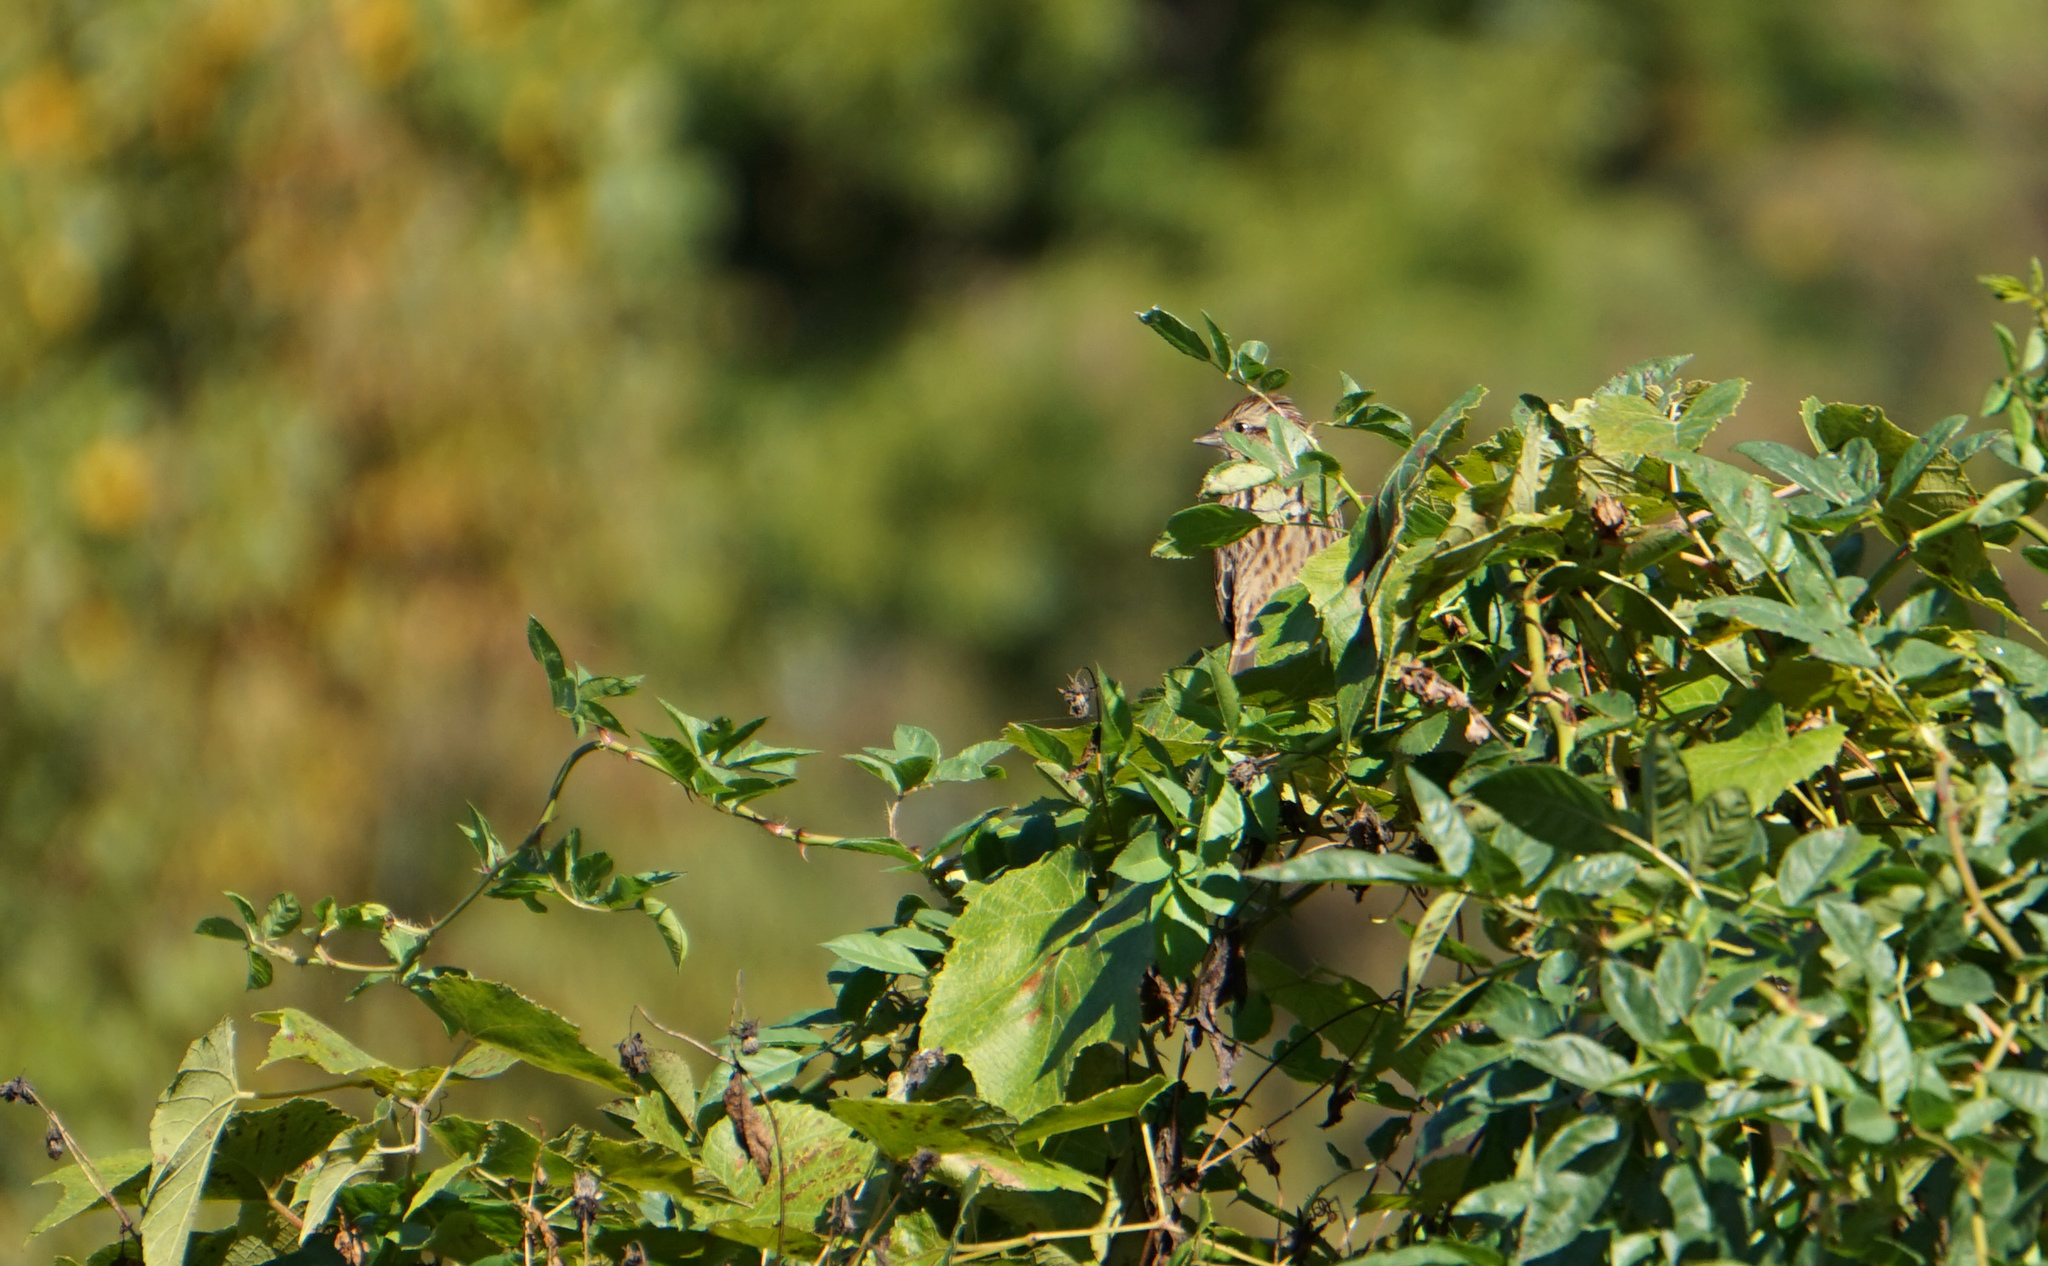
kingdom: Animalia
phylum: Chordata
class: Aves
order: Passeriformes
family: Passerellidae
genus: Melospiza
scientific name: Melospiza melodia
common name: Song sparrow
